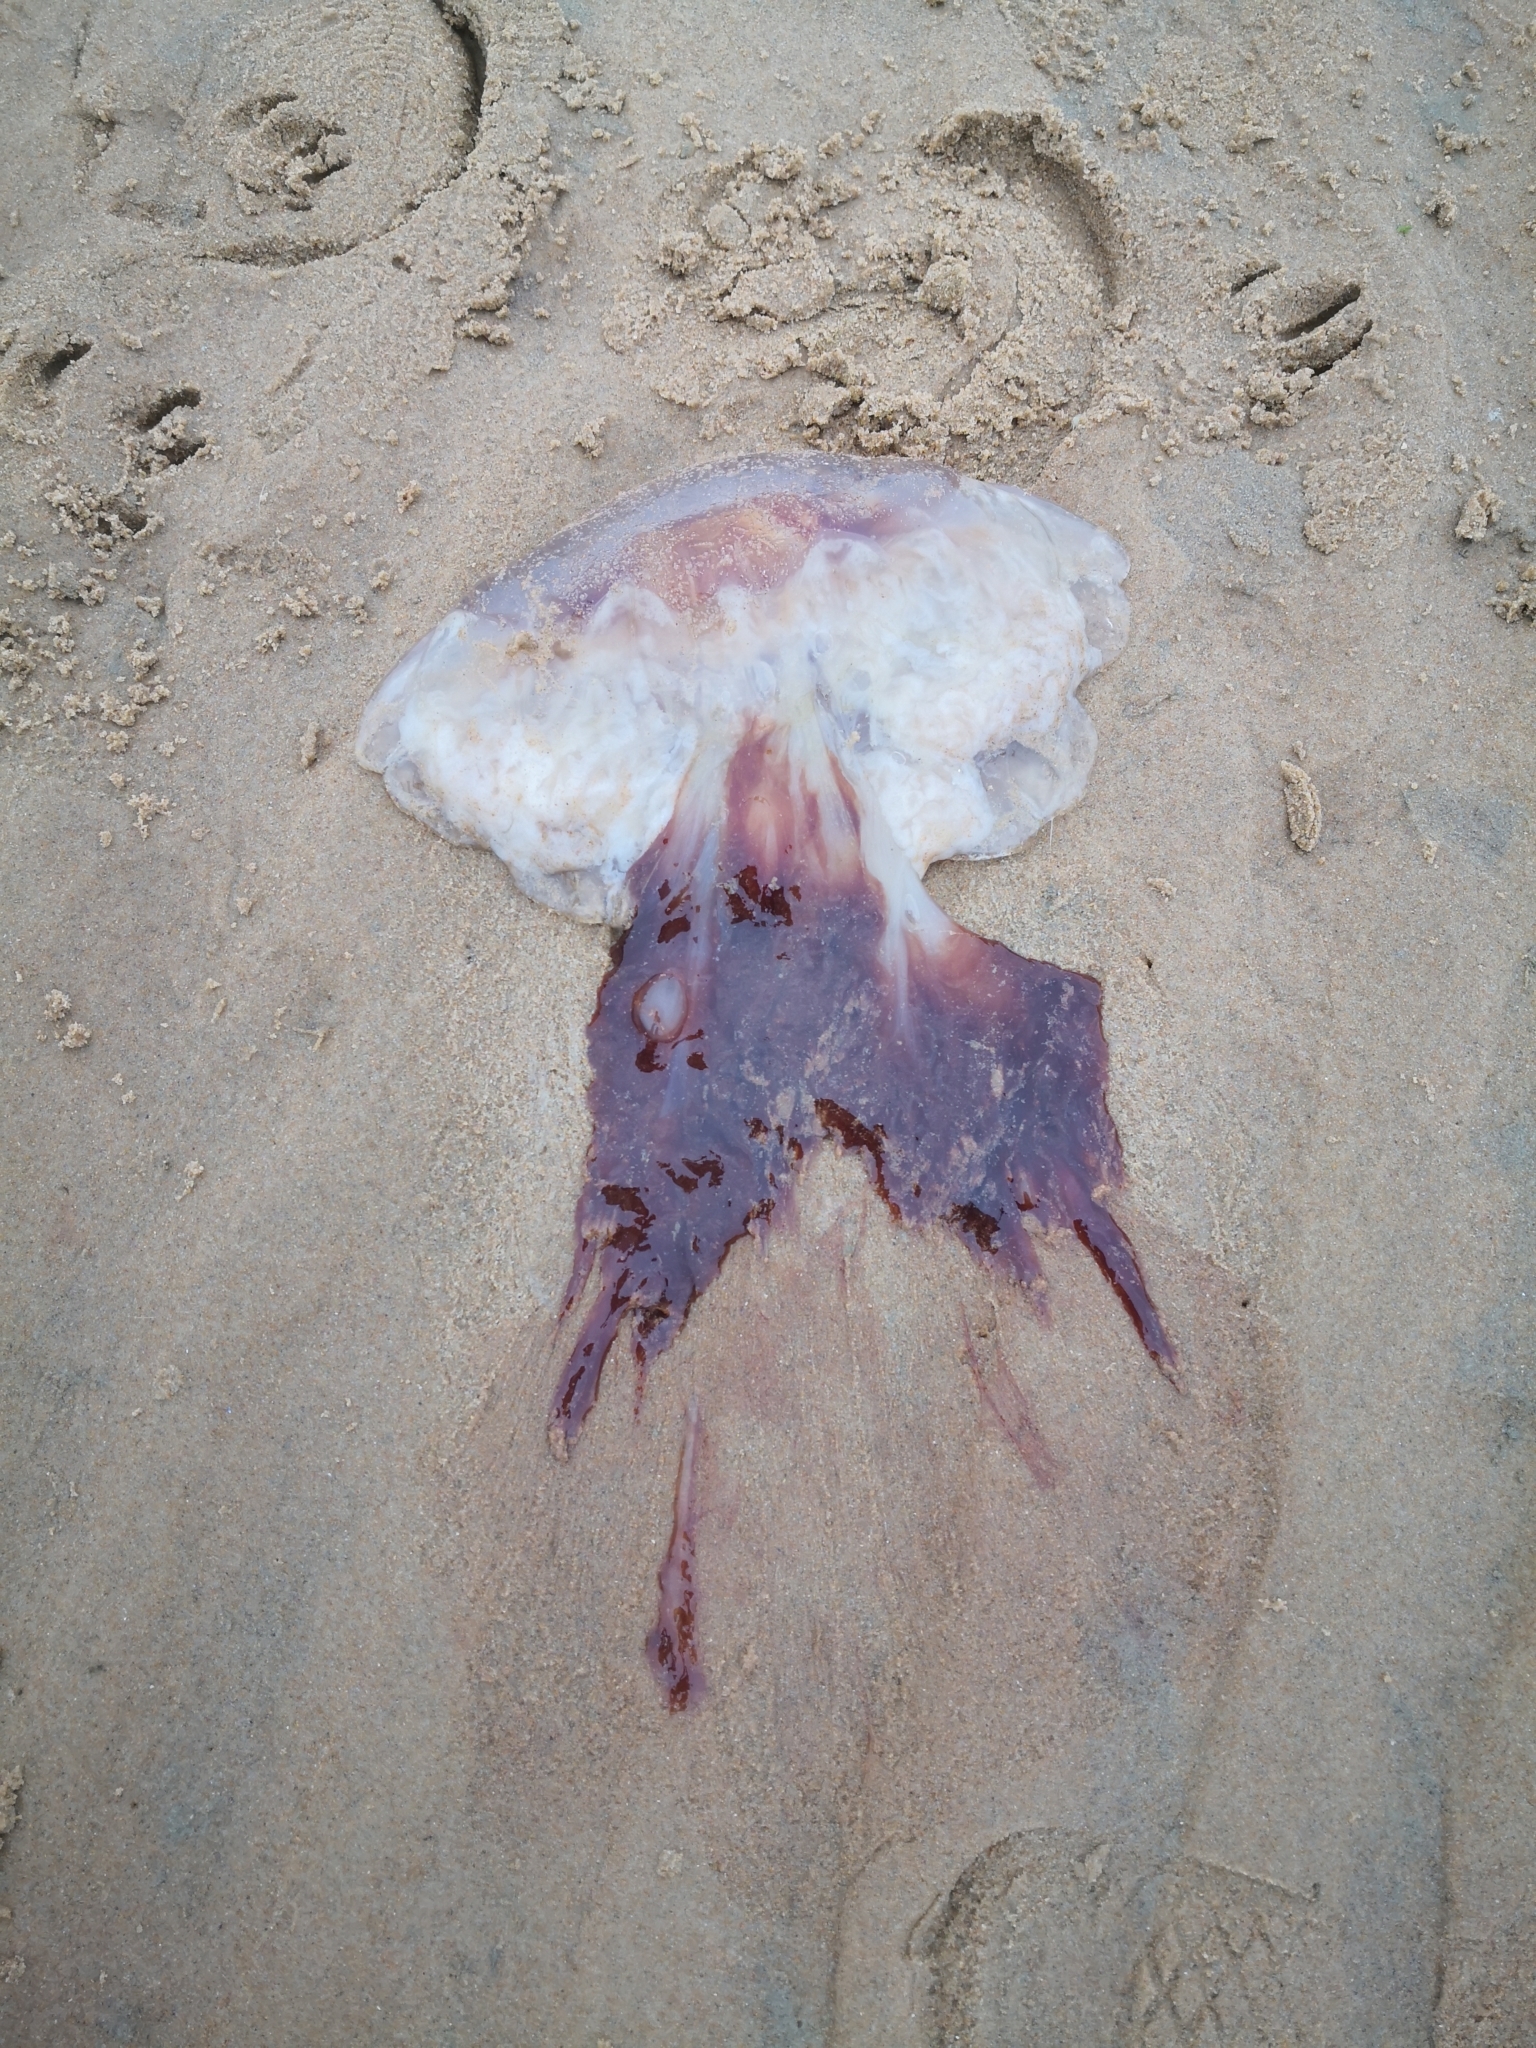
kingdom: Animalia
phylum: Cnidaria
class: Scyphozoa
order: Semaeostomeae
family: Cyaneidae
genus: Cyanea
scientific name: Cyanea capillata
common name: Lion's mane jellyfish
